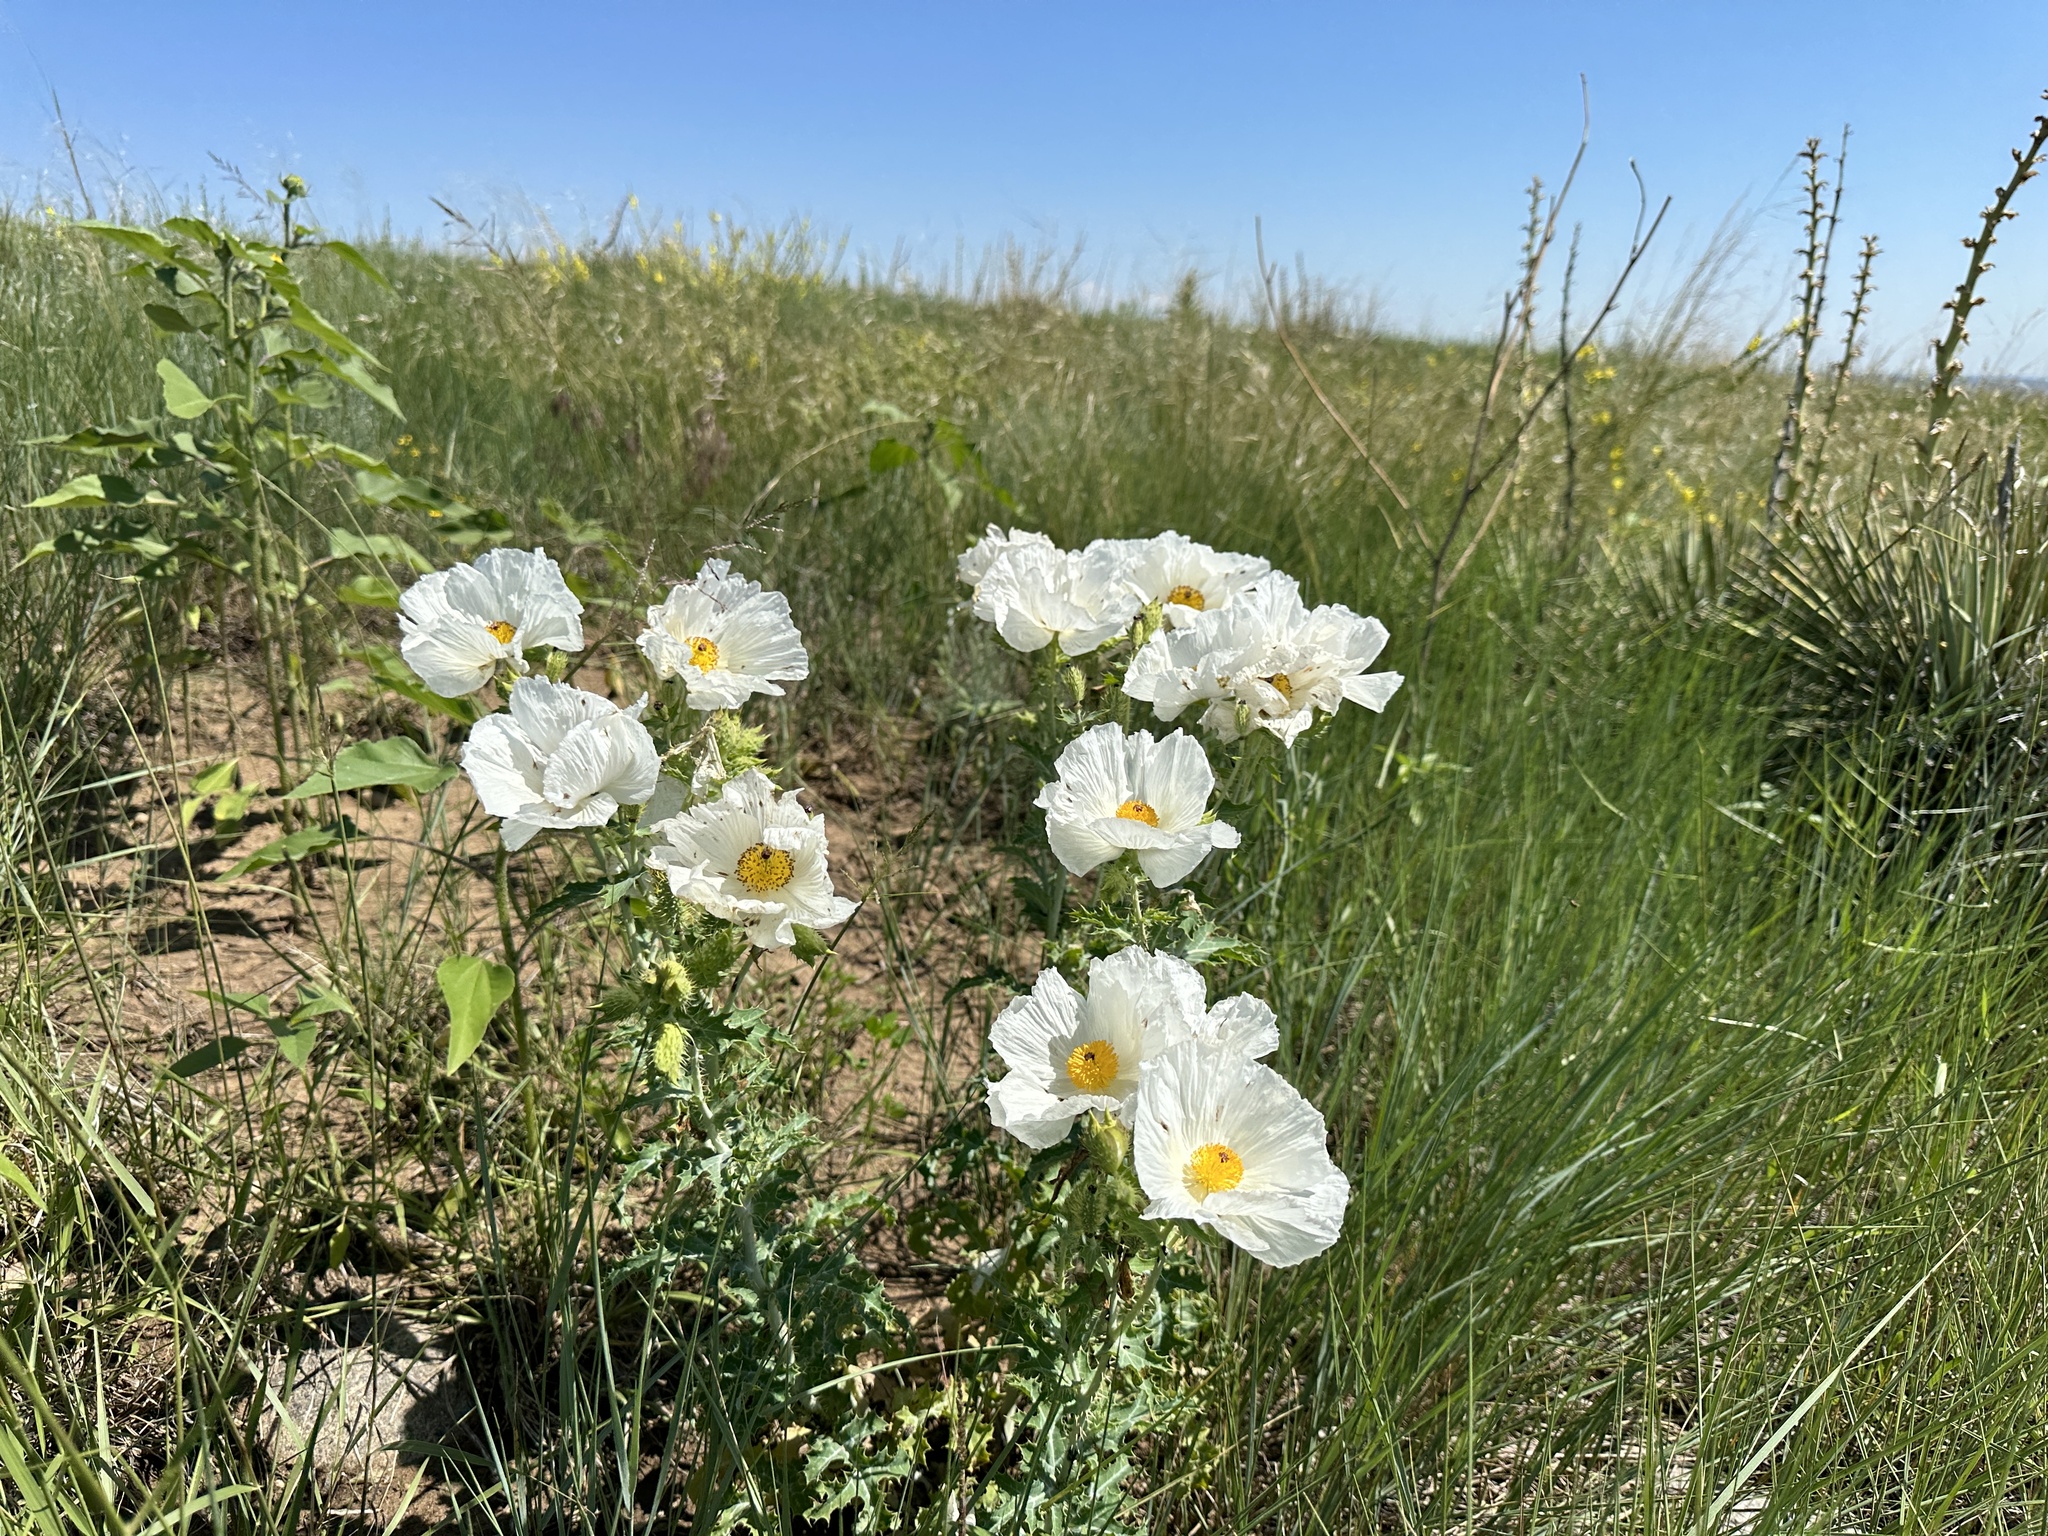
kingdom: Plantae
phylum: Tracheophyta
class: Magnoliopsida
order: Ranunculales
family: Papaveraceae
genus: Argemone
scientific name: Argemone polyanthemos
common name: Plains prickly-poppy
